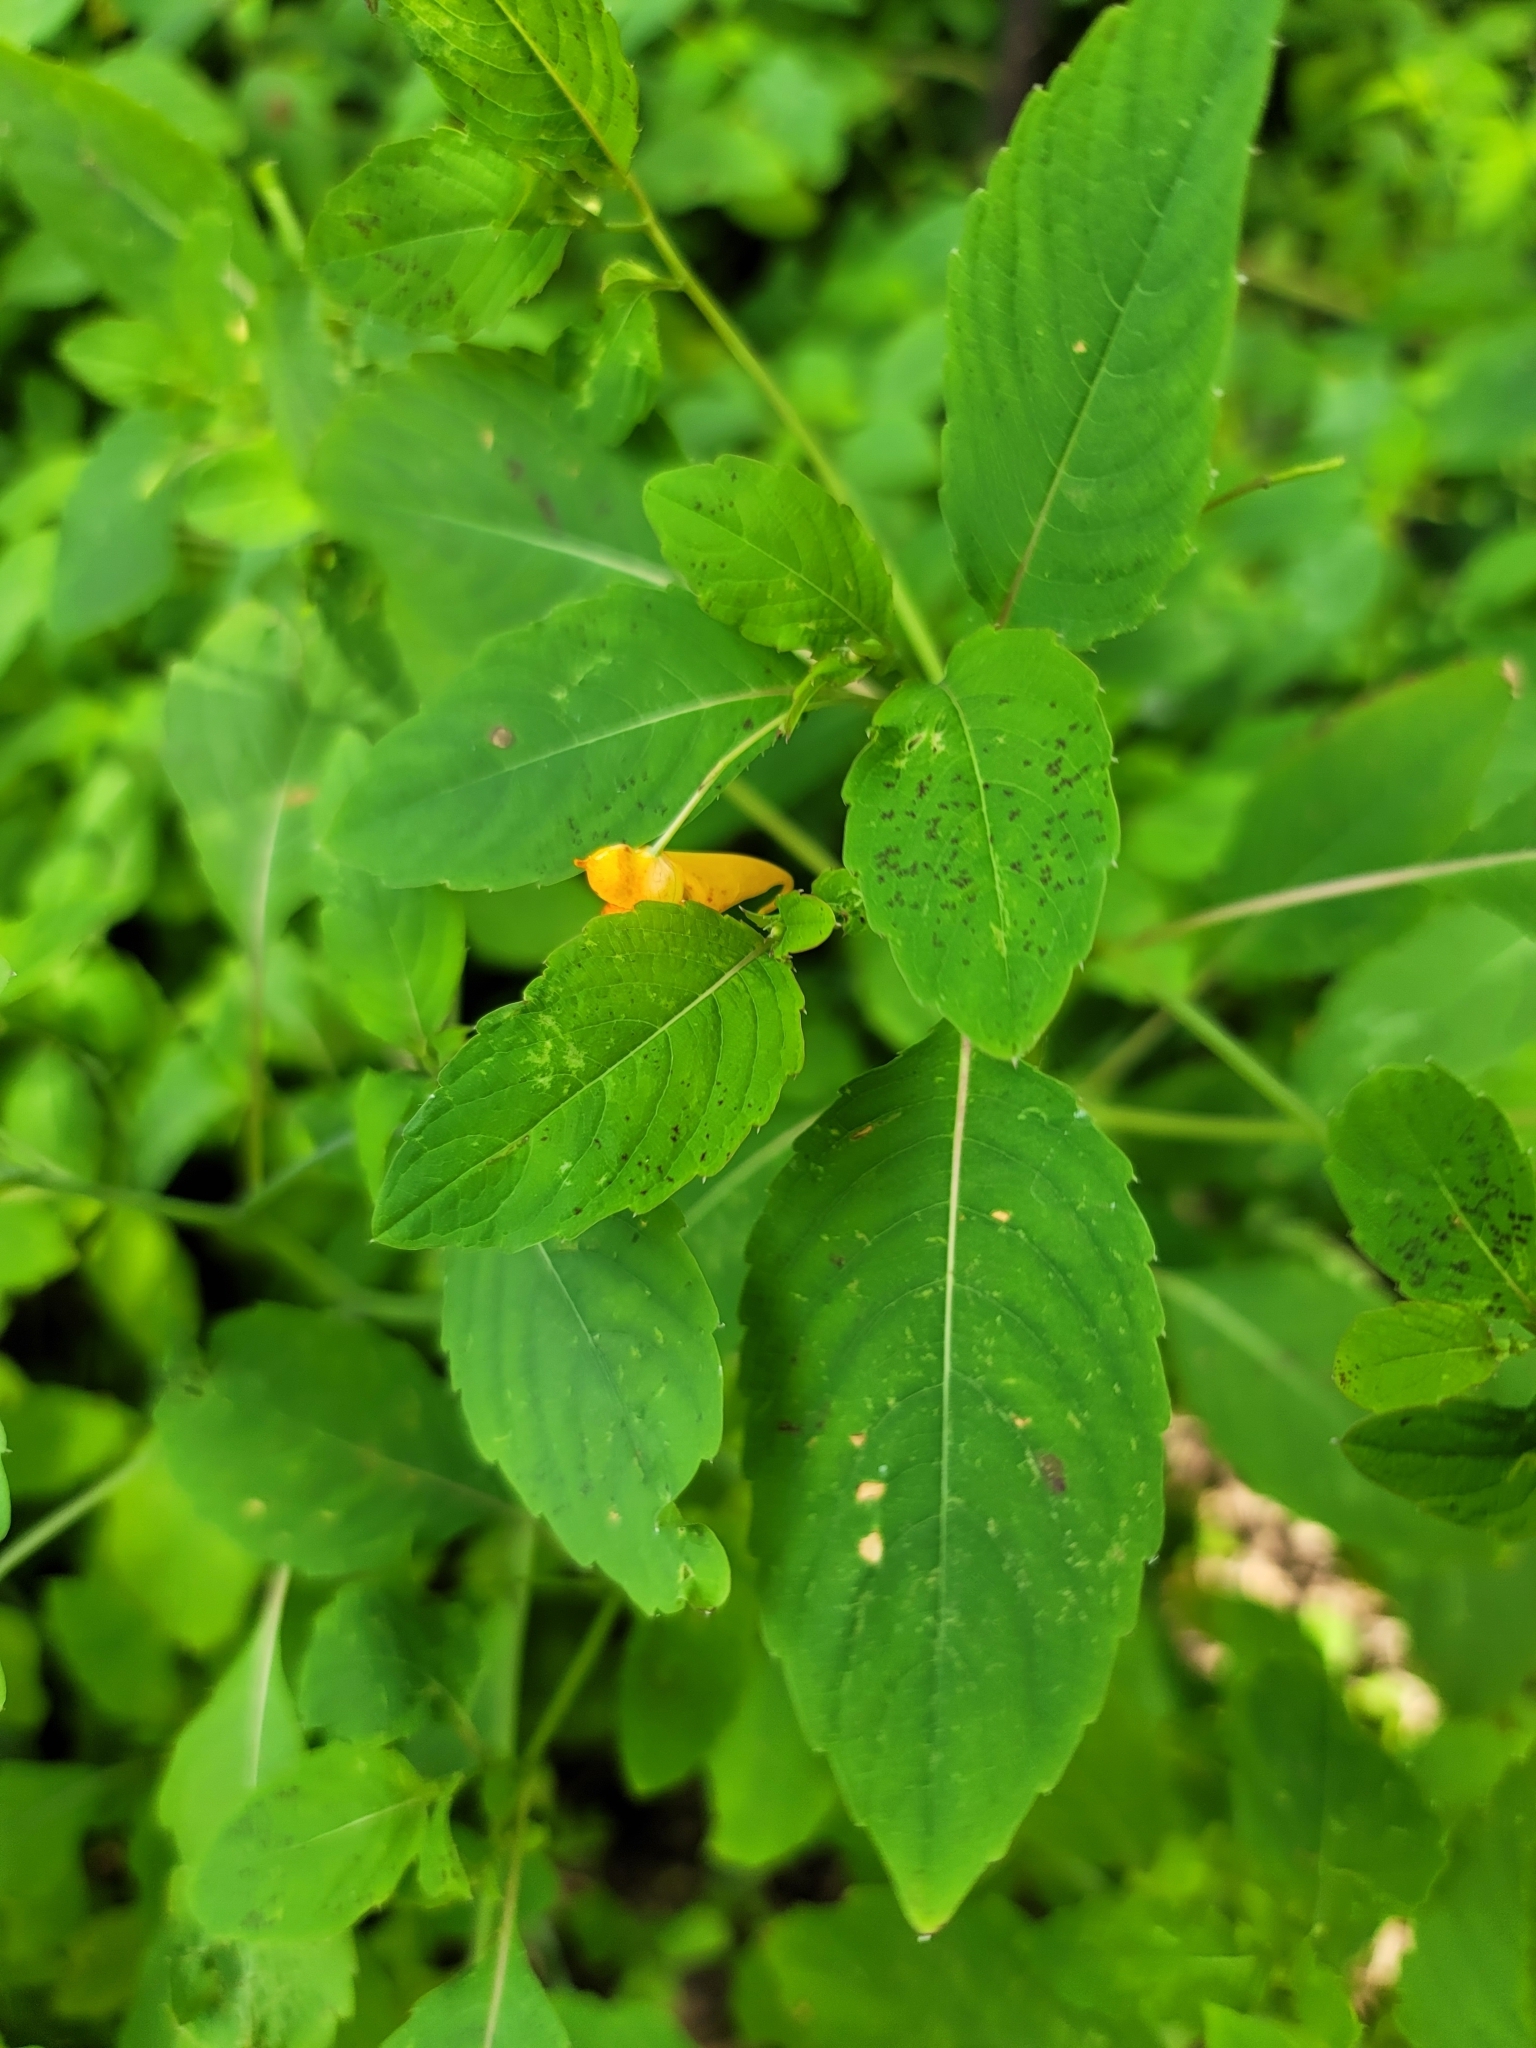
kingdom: Plantae
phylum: Tracheophyta
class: Magnoliopsida
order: Ericales
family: Balsaminaceae
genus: Impatiens
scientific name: Impatiens capensis
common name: Orange balsam
